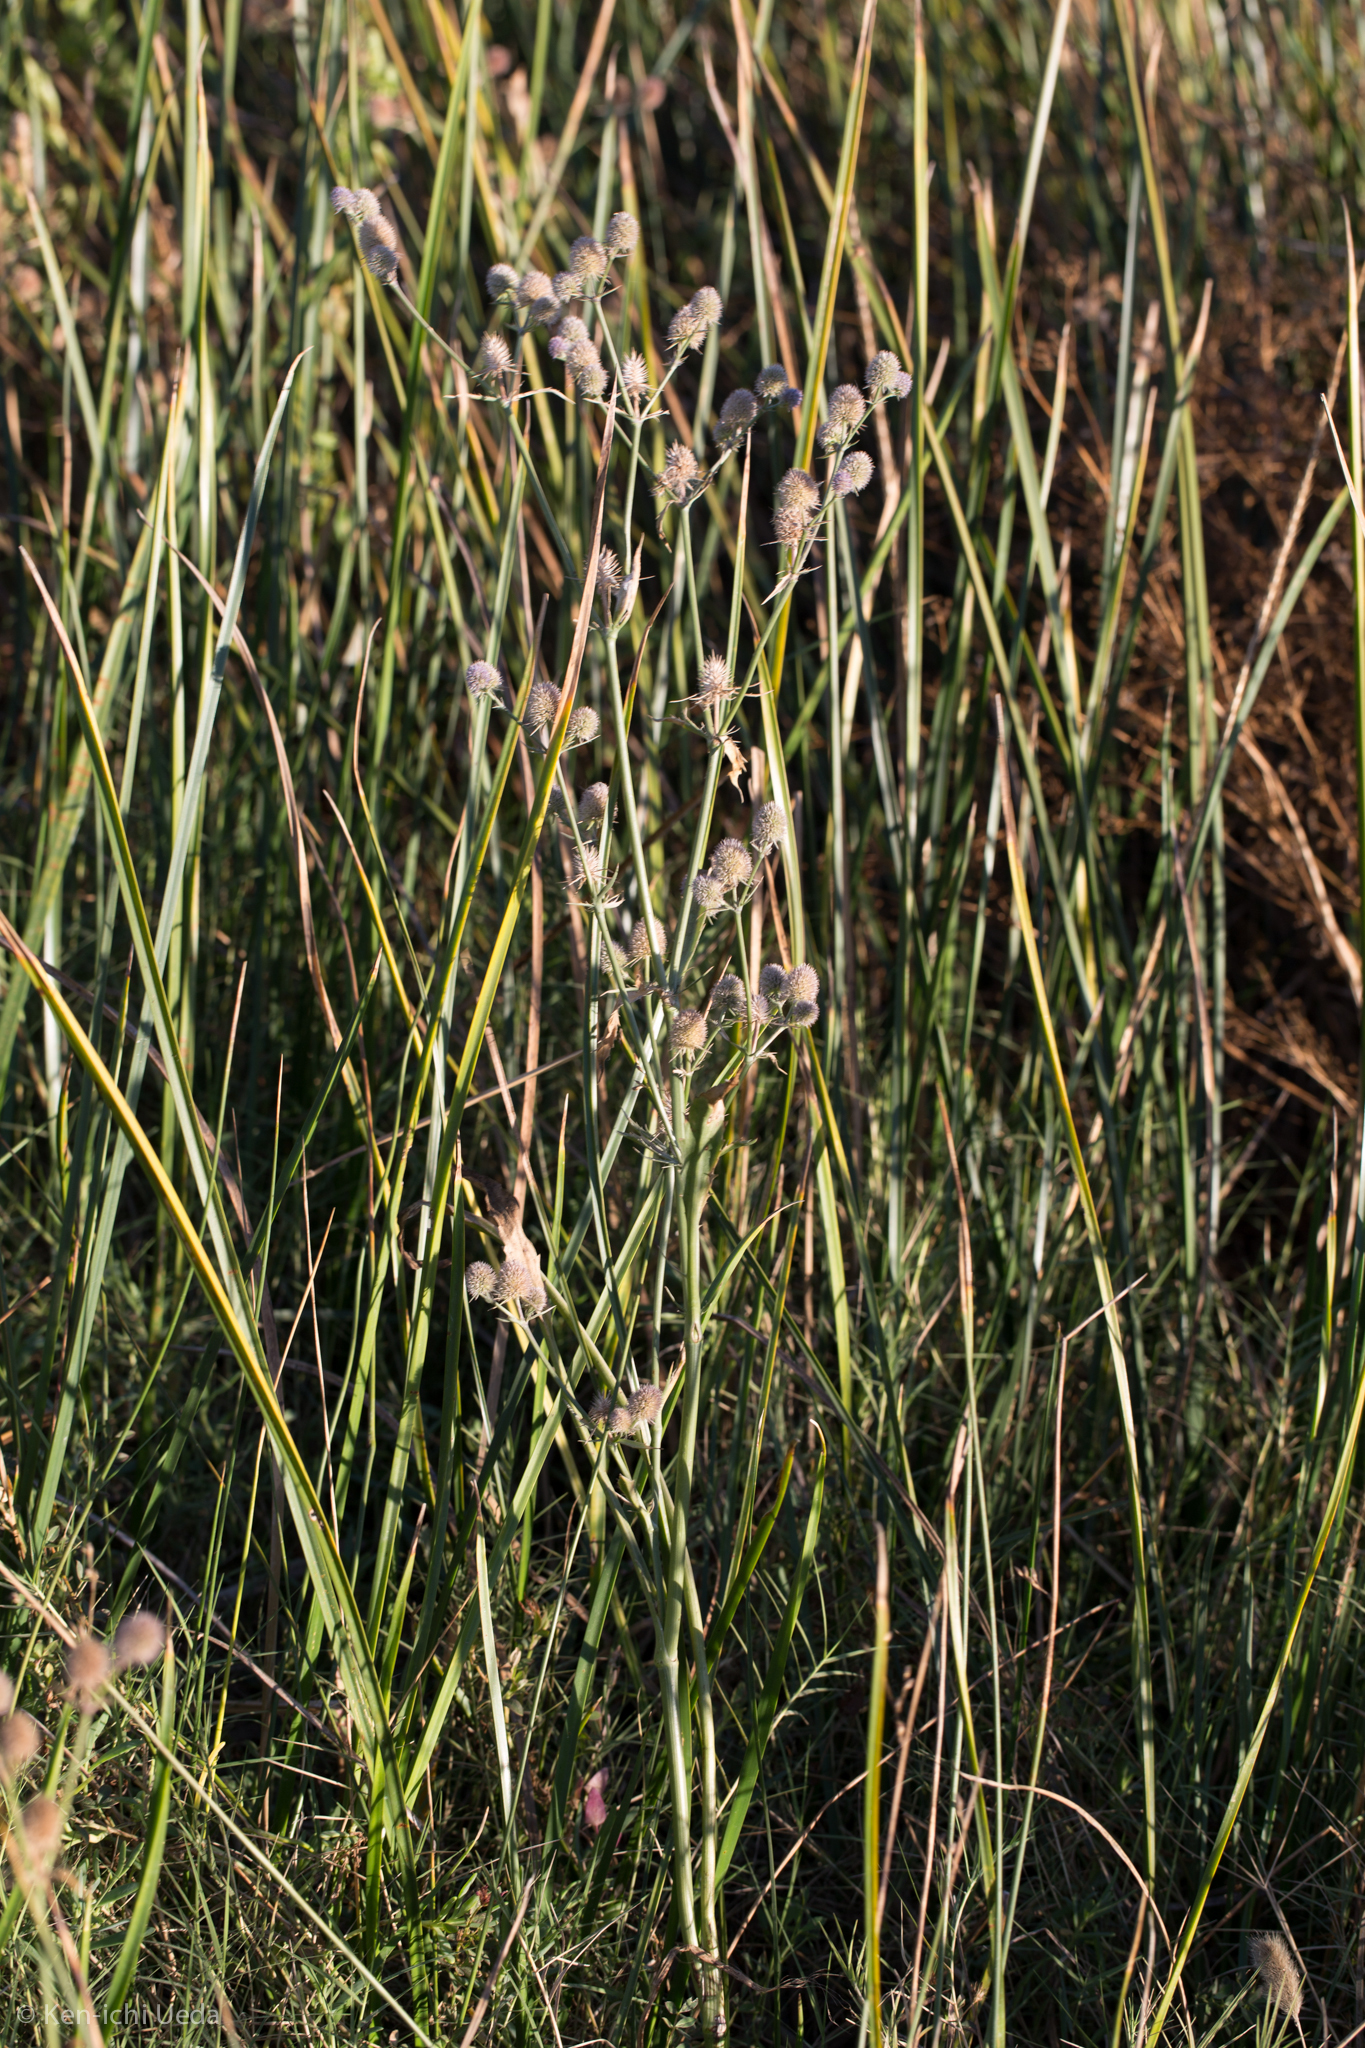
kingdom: Plantae
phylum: Tracheophyta
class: Magnoliopsida
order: Apiales
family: Apiaceae
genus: Eryngium
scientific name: Eryngium articulatum
